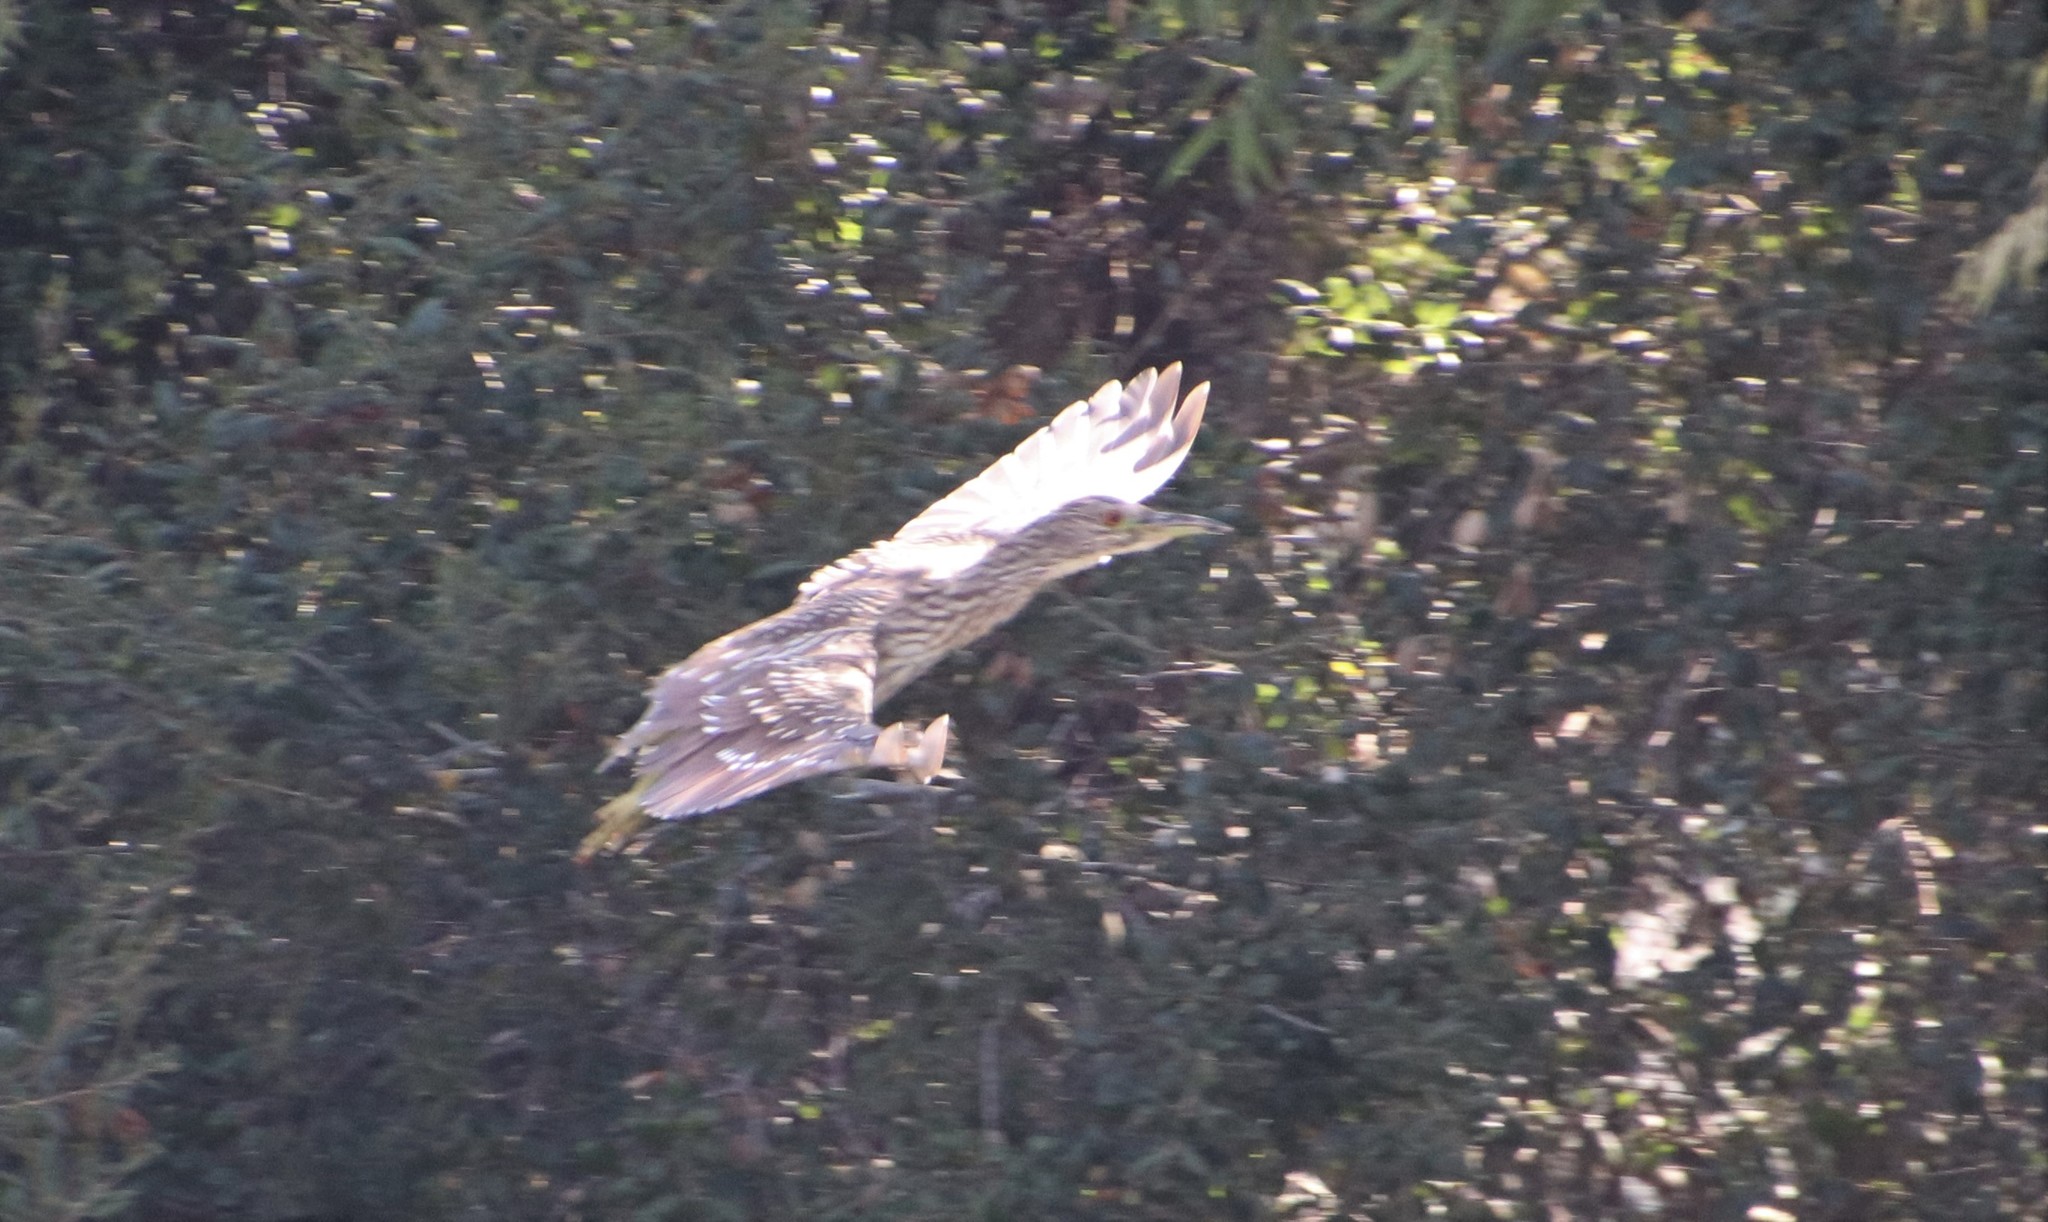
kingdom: Animalia
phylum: Chordata
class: Aves
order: Pelecaniformes
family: Ardeidae
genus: Nycticorax
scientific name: Nycticorax nycticorax
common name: Black-crowned night heron
